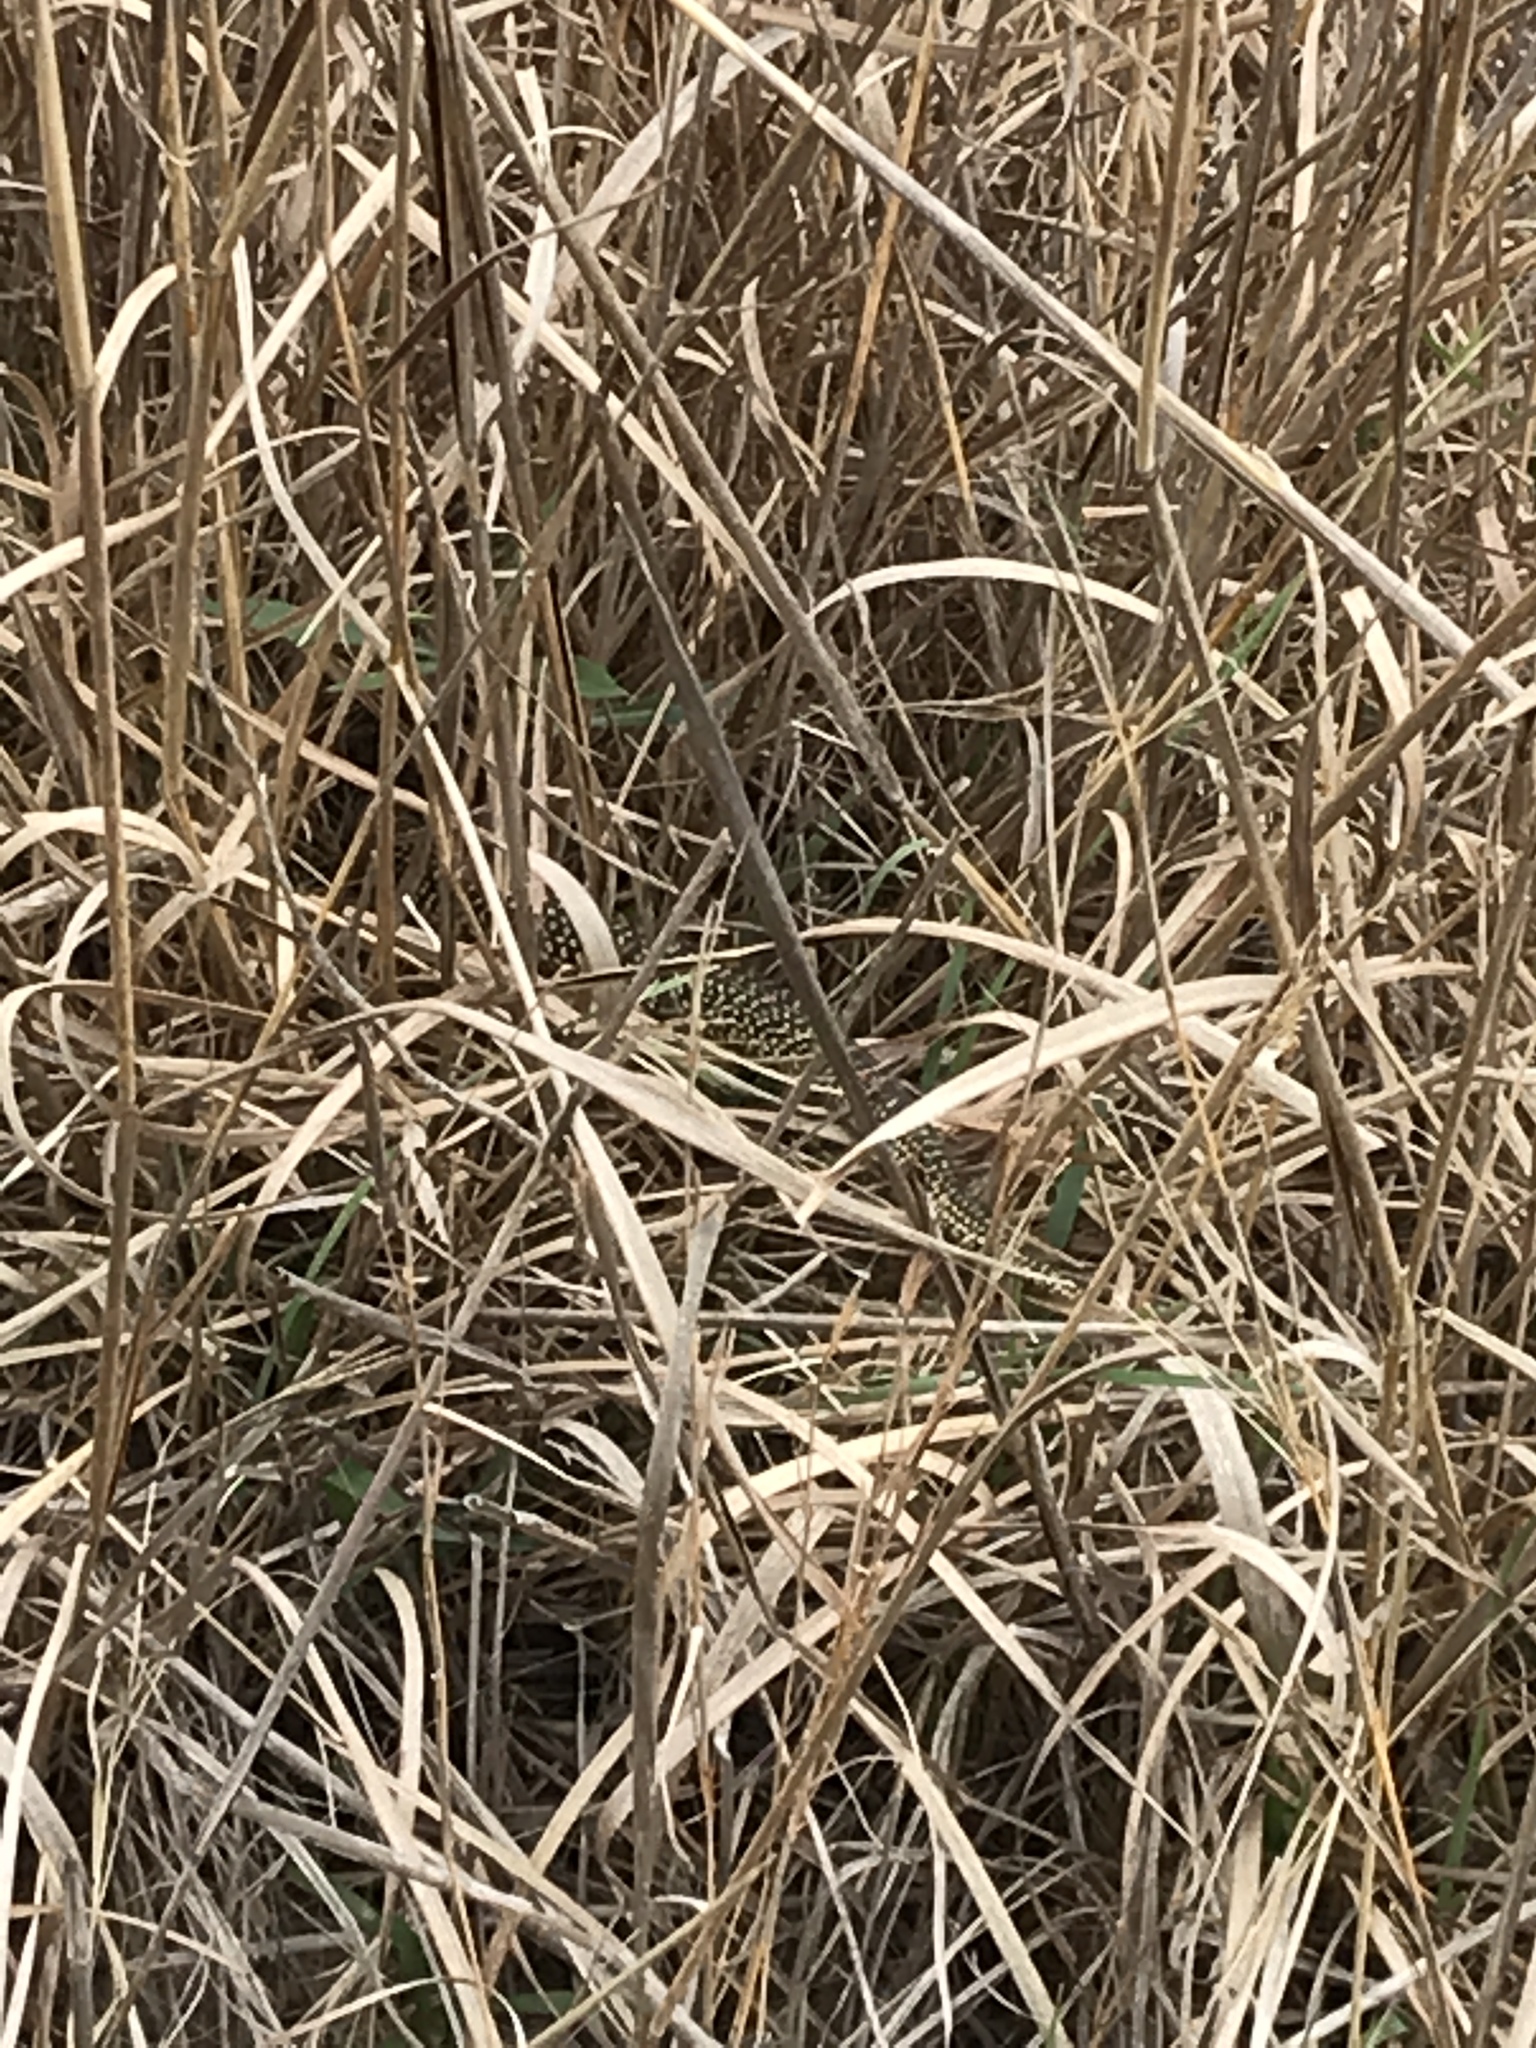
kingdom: Animalia
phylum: Chordata
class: Squamata
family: Colubridae
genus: Lampropeltis
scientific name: Lampropeltis holbrooki
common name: Speckled kingsnake
